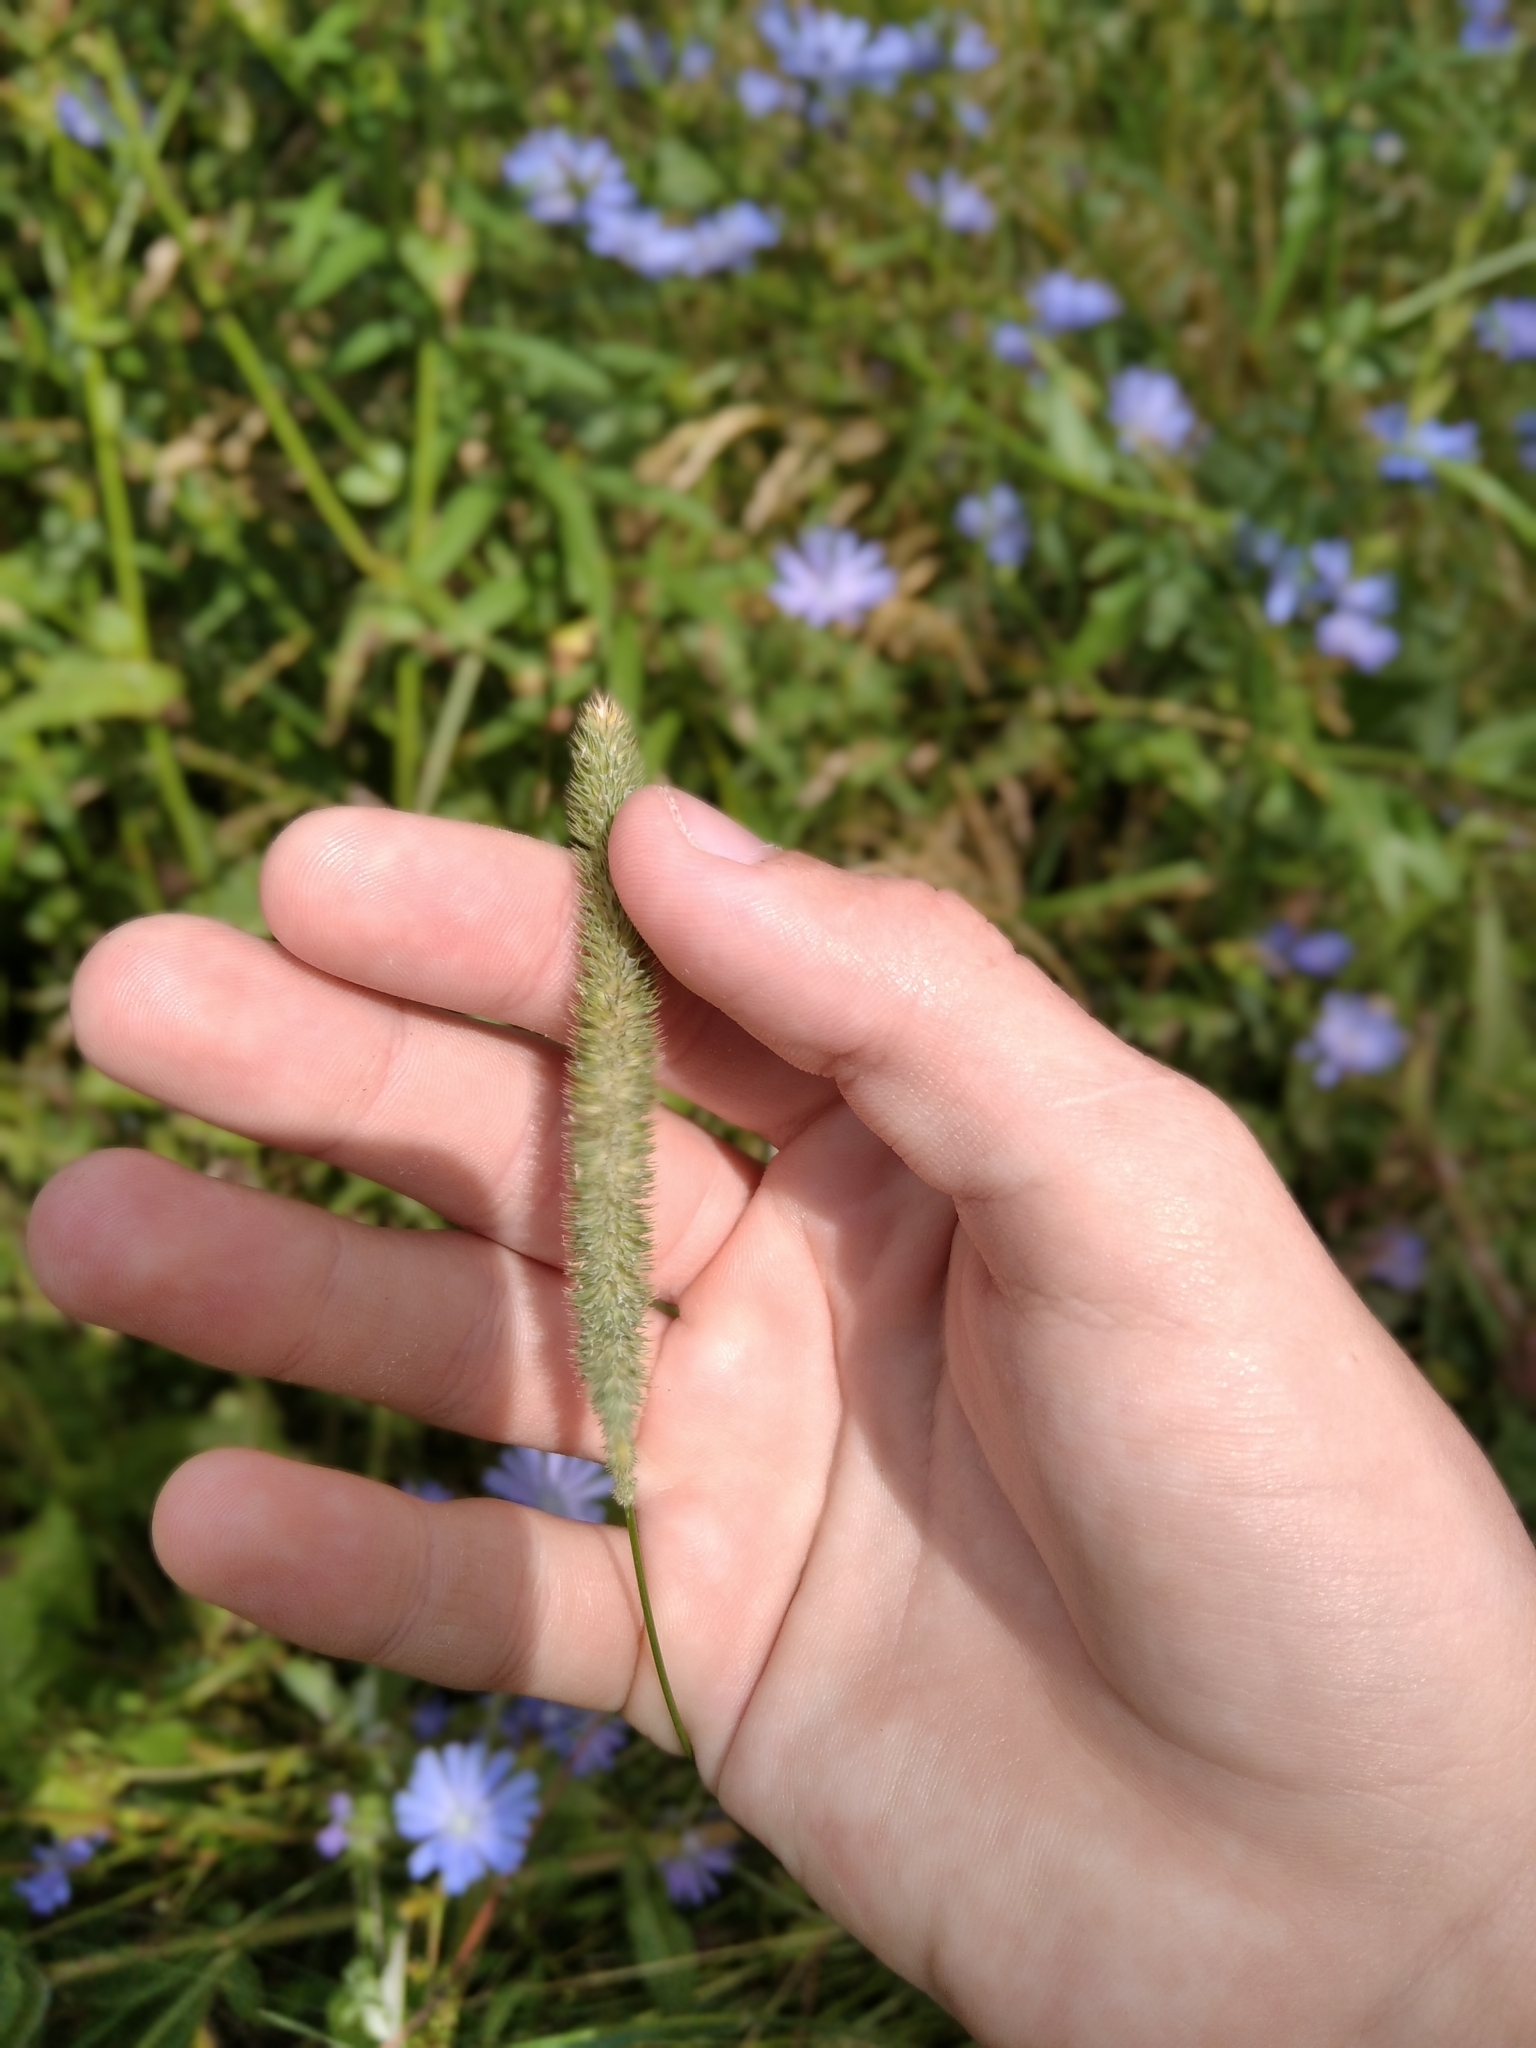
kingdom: Plantae
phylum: Tracheophyta
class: Liliopsida
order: Poales
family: Poaceae
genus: Phleum
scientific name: Phleum pratense
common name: Timothy grass
